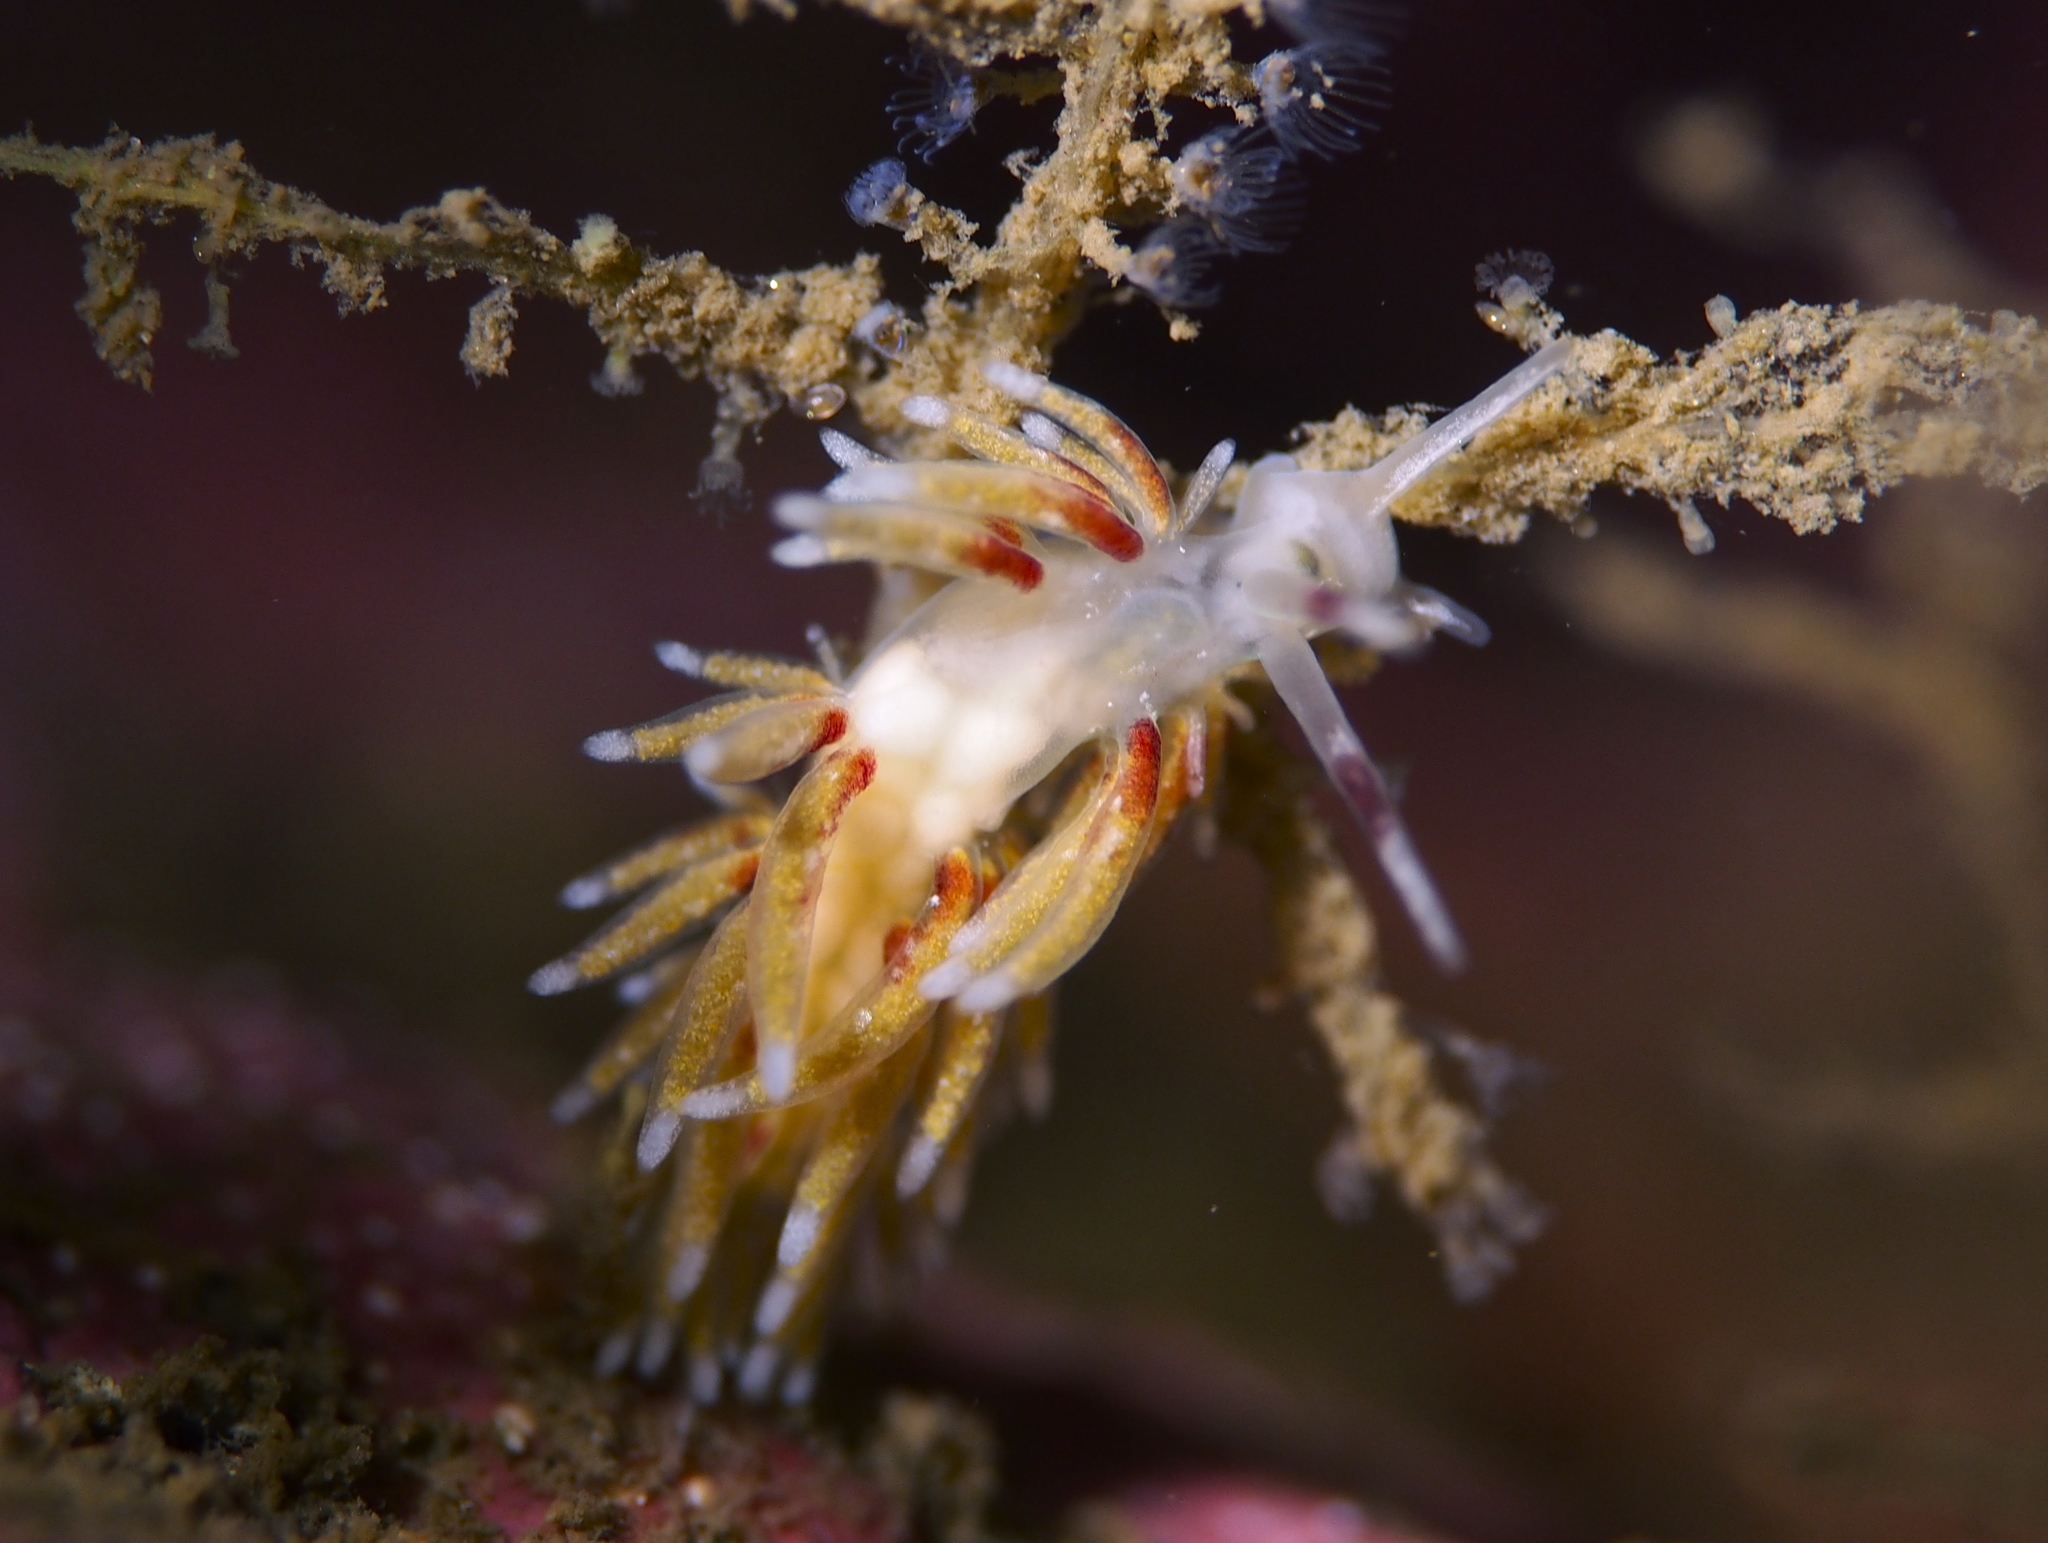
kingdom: Animalia
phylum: Mollusca
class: Gastropoda
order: Nudibranchia
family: Trinchesiidae
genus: Rubramoena
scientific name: Rubramoena rubescens
